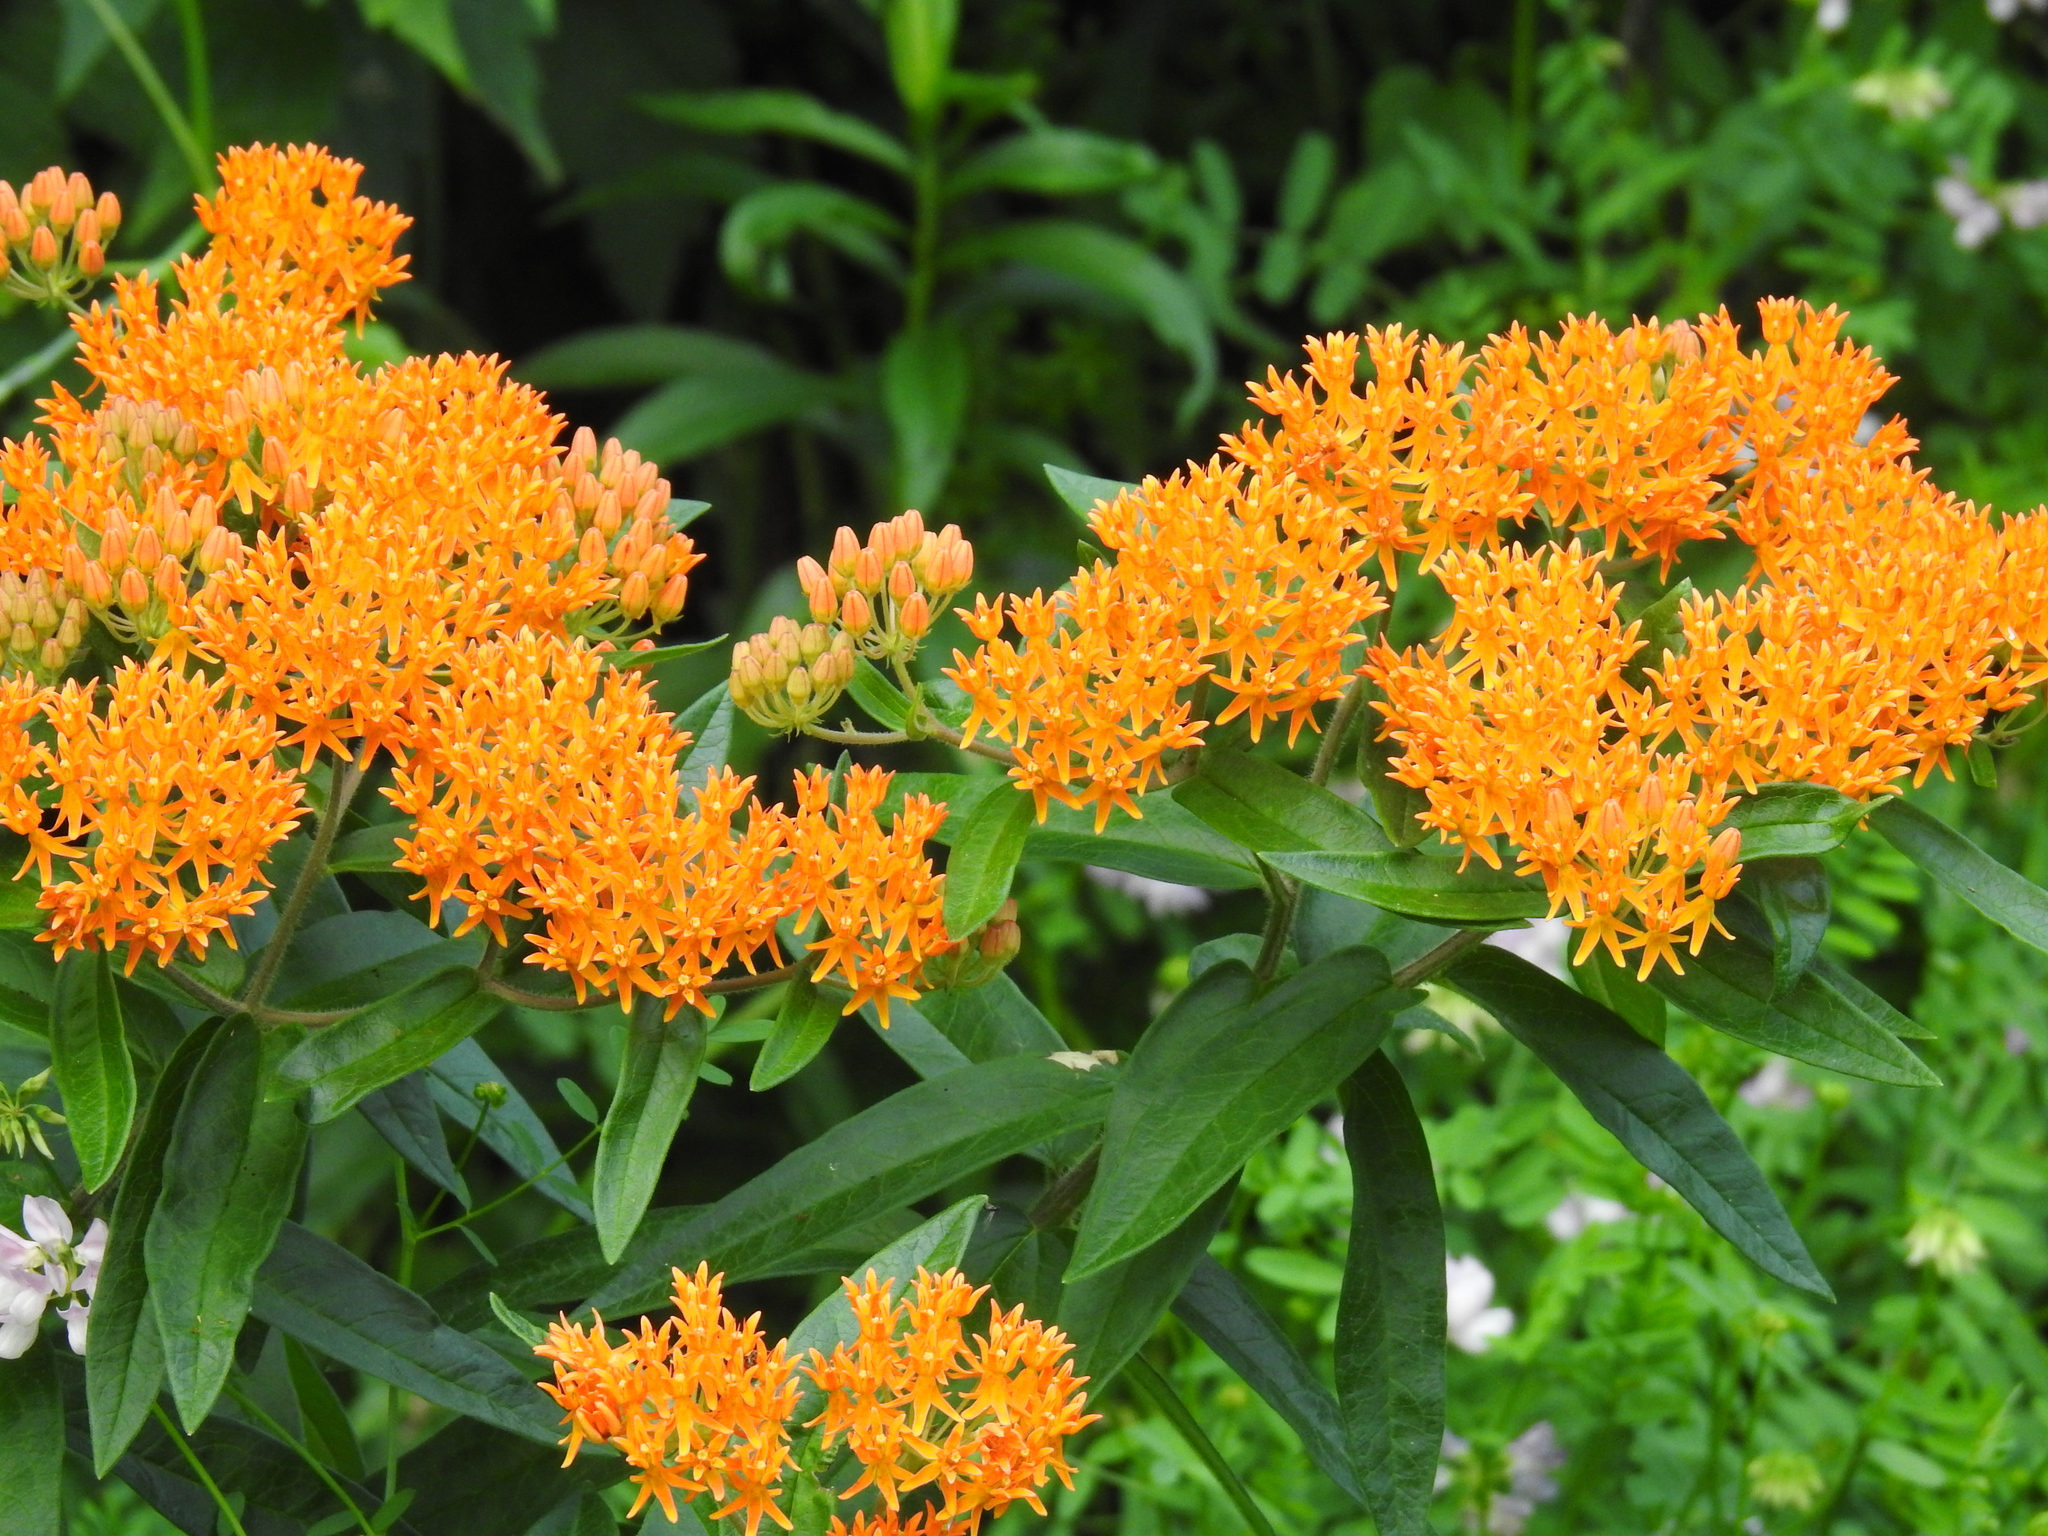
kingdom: Plantae
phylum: Tracheophyta
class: Magnoliopsida
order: Gentianales
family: Apocynaceae
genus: Asclepias
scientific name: Asclepias tuberosa
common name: Butterfly milkweed
